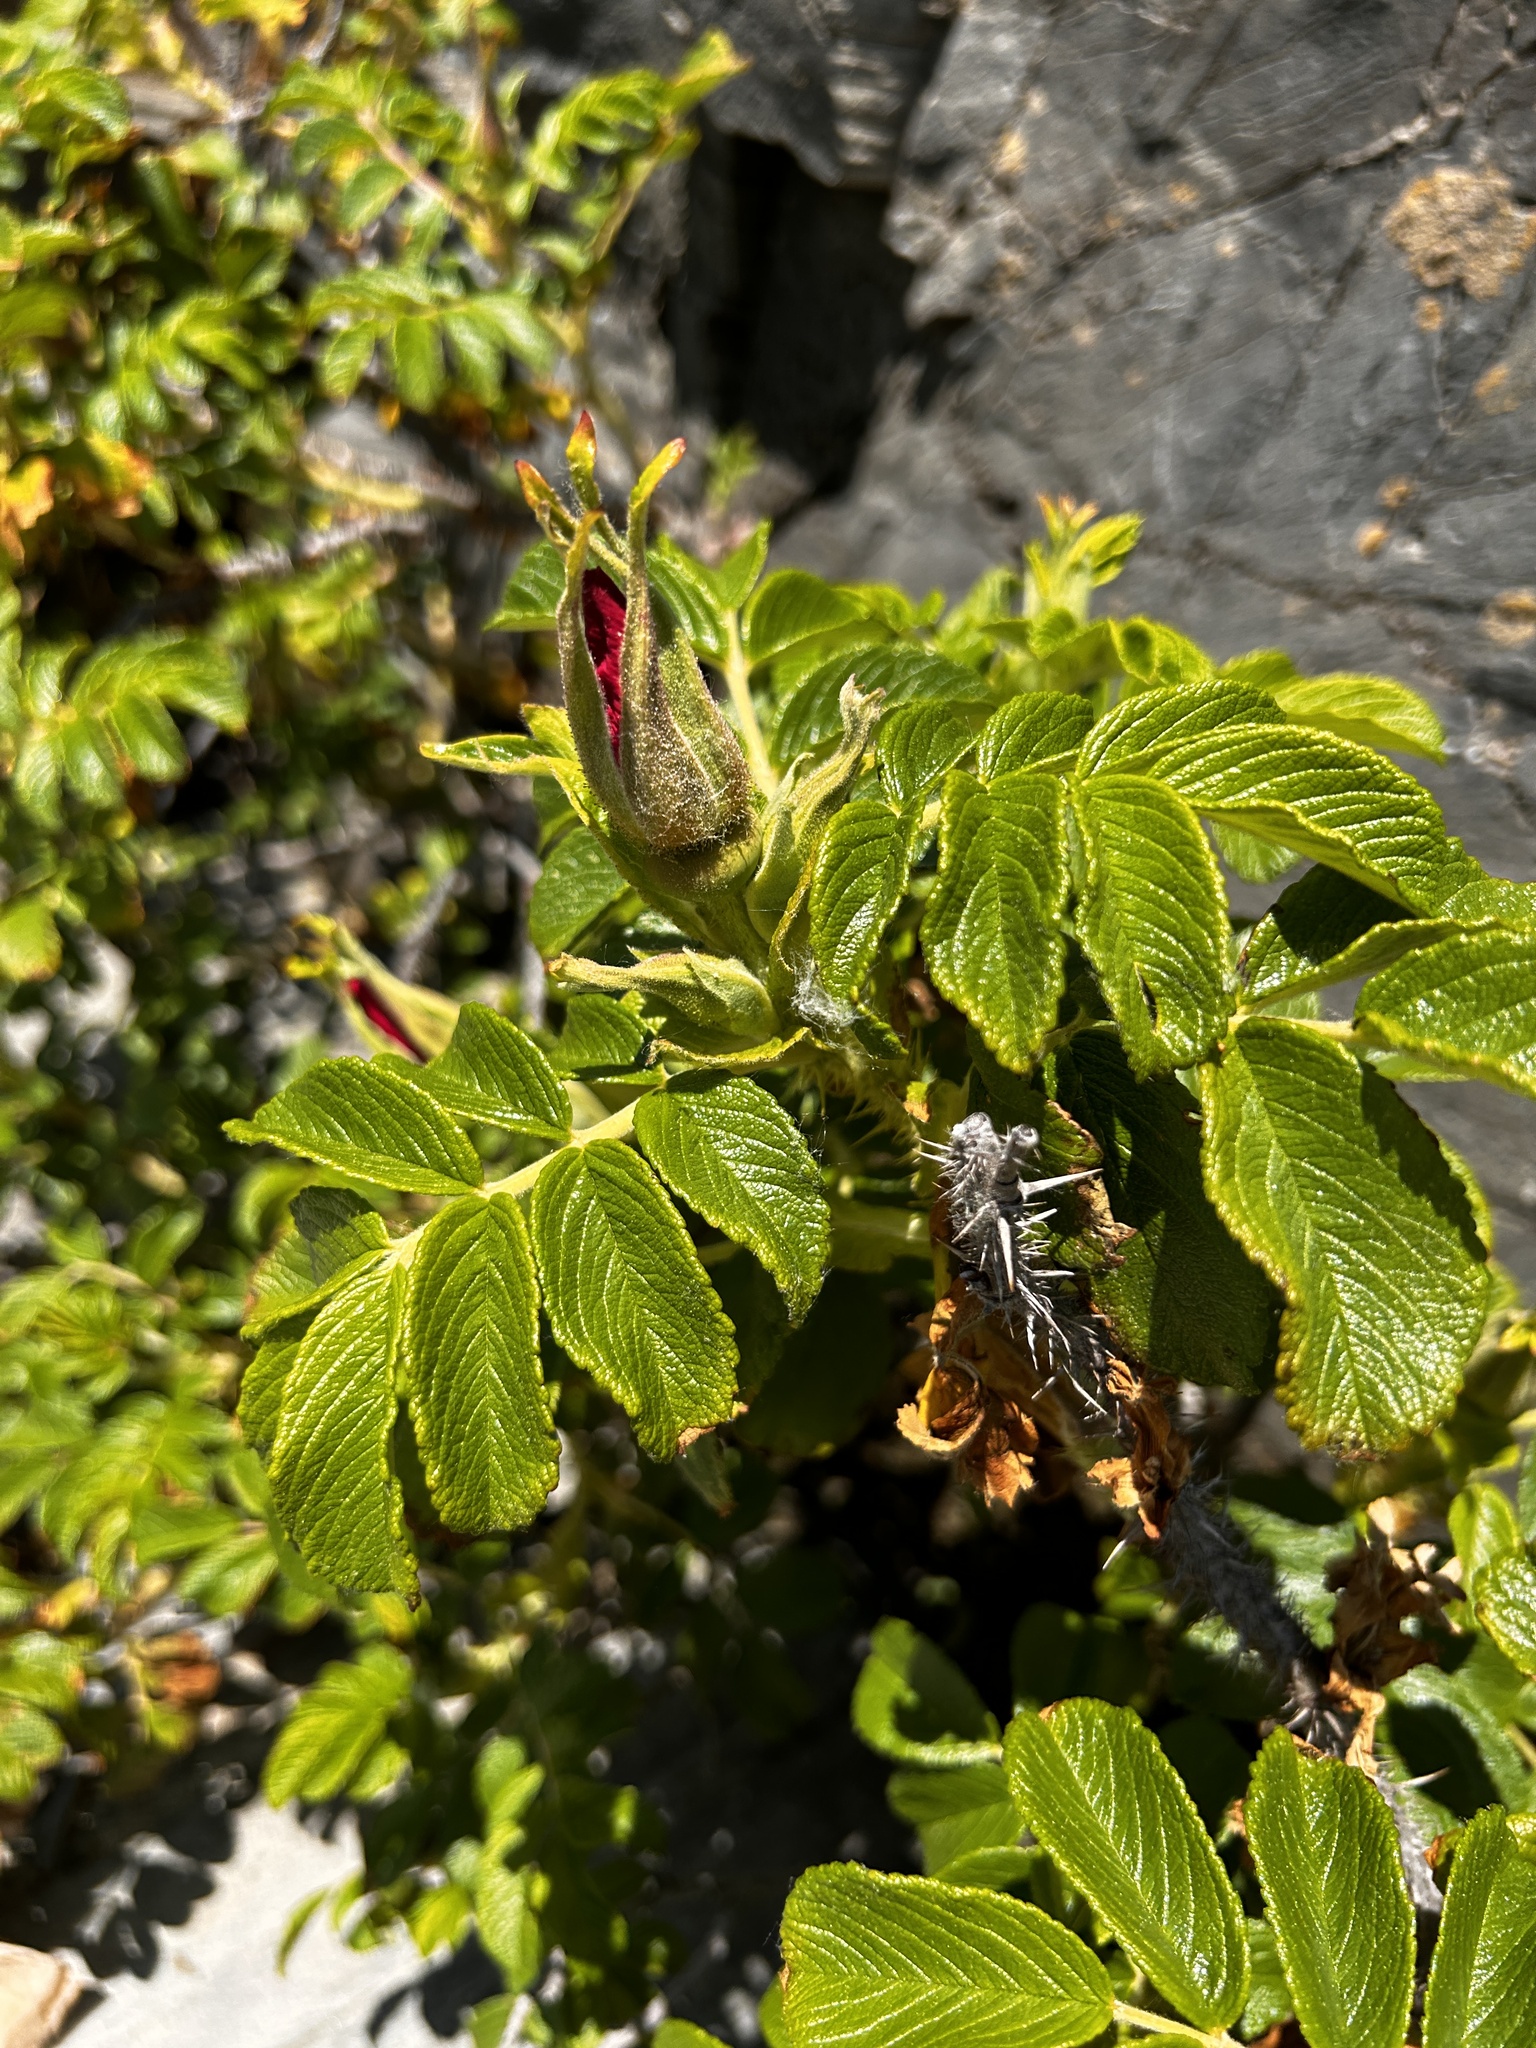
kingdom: Plantae
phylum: Tracheophyta
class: Magnoliopsida
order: Rosales
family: Rosaceae
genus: Rosa
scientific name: Rosa rugosa
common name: Japanese rose
